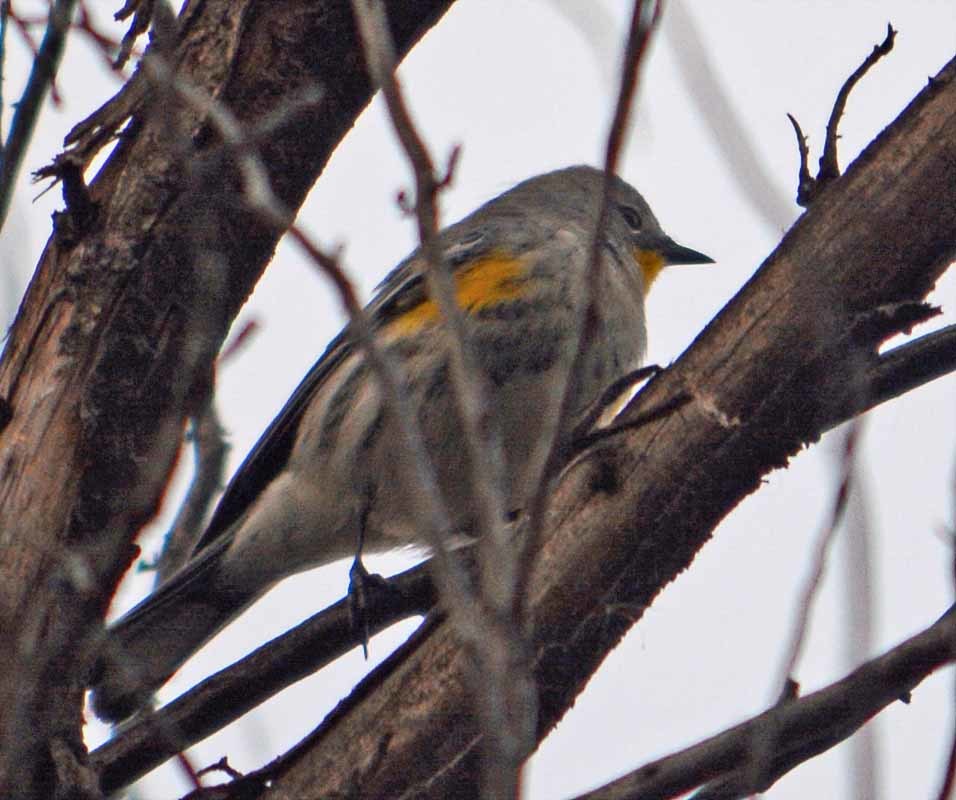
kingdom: Animalia
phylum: Chordata
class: Aves
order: Passeriformes
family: Parulidae
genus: Setophaga
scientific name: Setophaga auduboni
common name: Audubon's warbler
